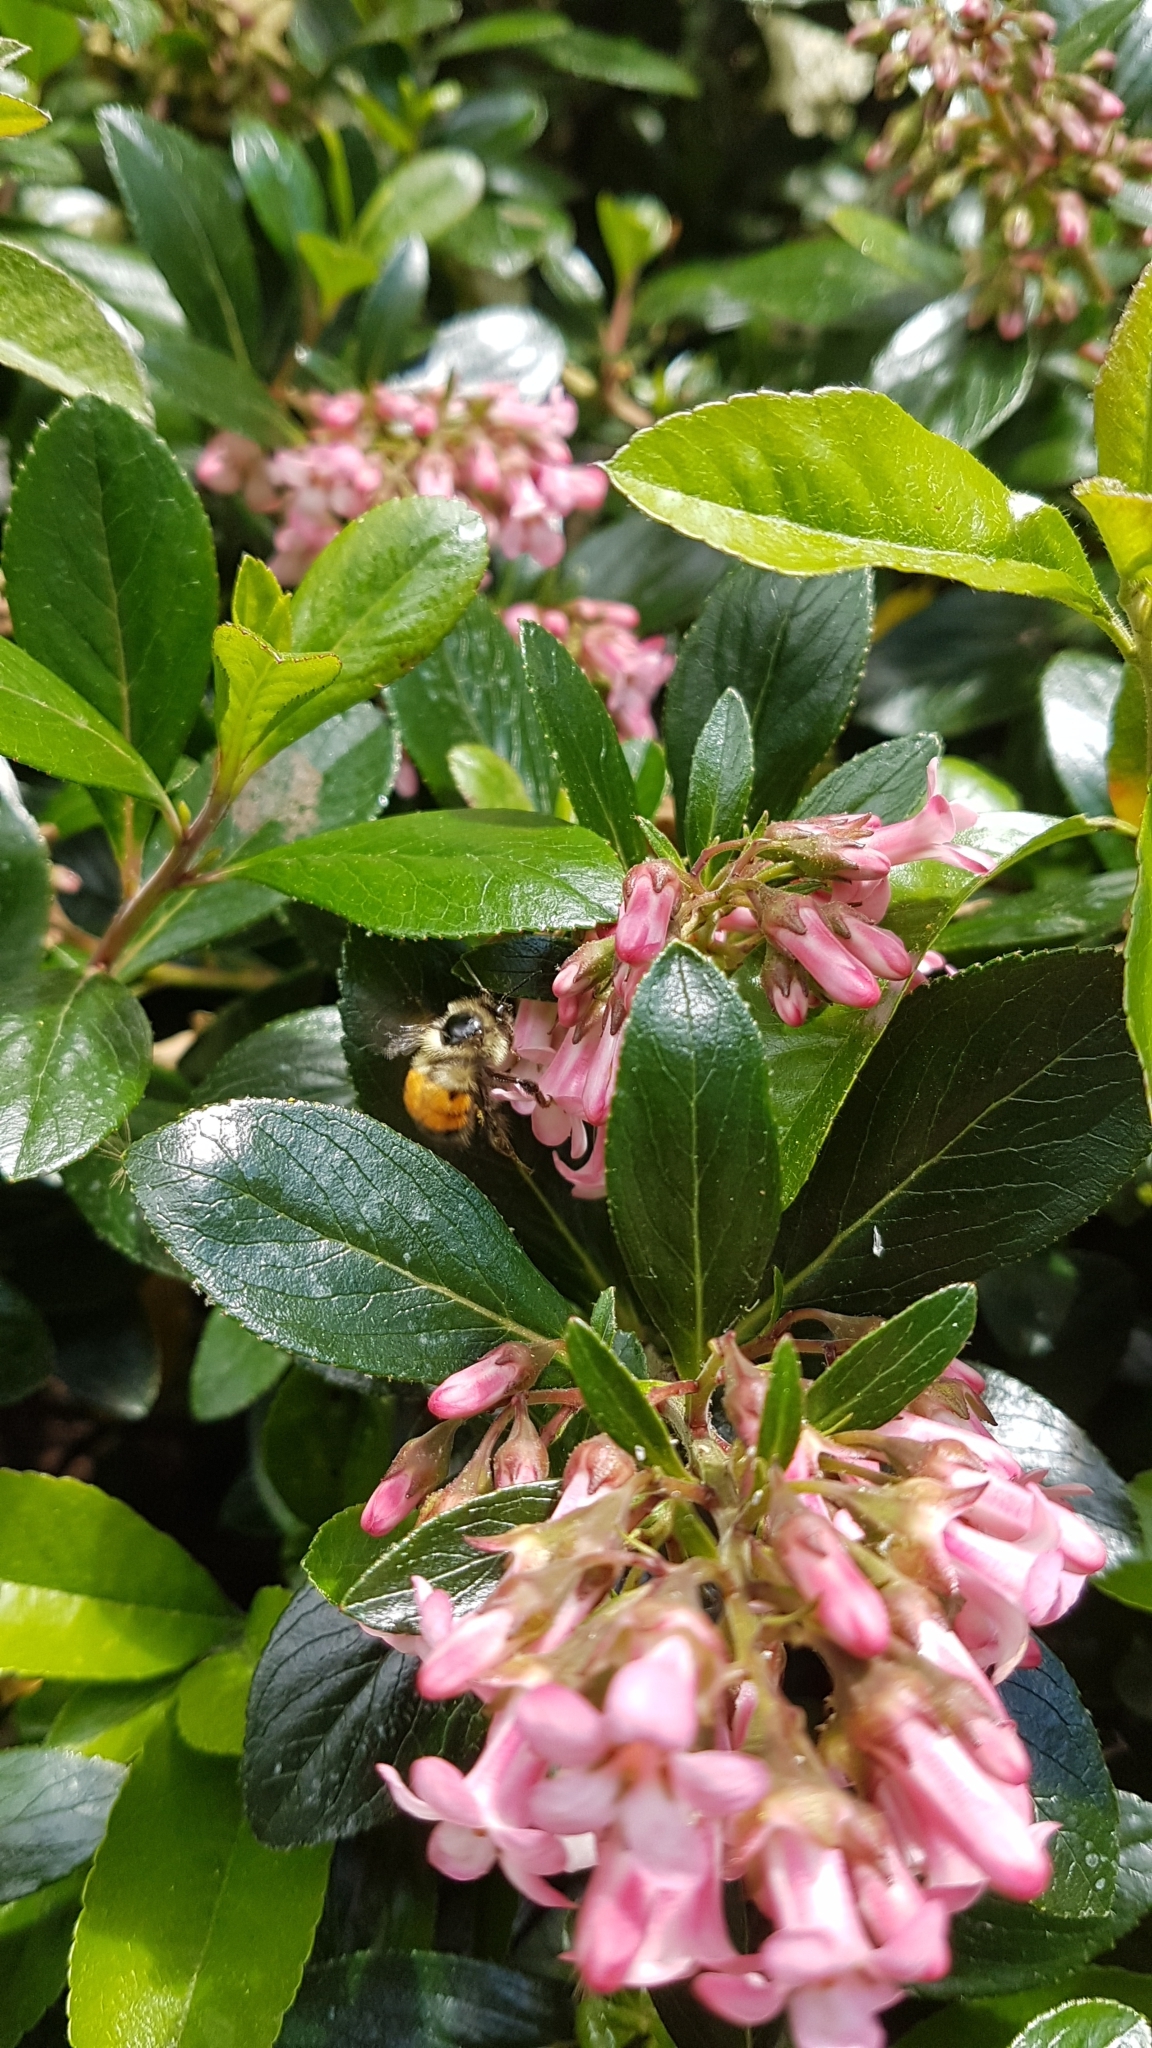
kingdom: Animalia
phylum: Arthropoda
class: Insecta
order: Hymenoptera
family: Apidae
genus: Bombus
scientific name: Bombus melanopygus
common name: Black tail bumble bee
